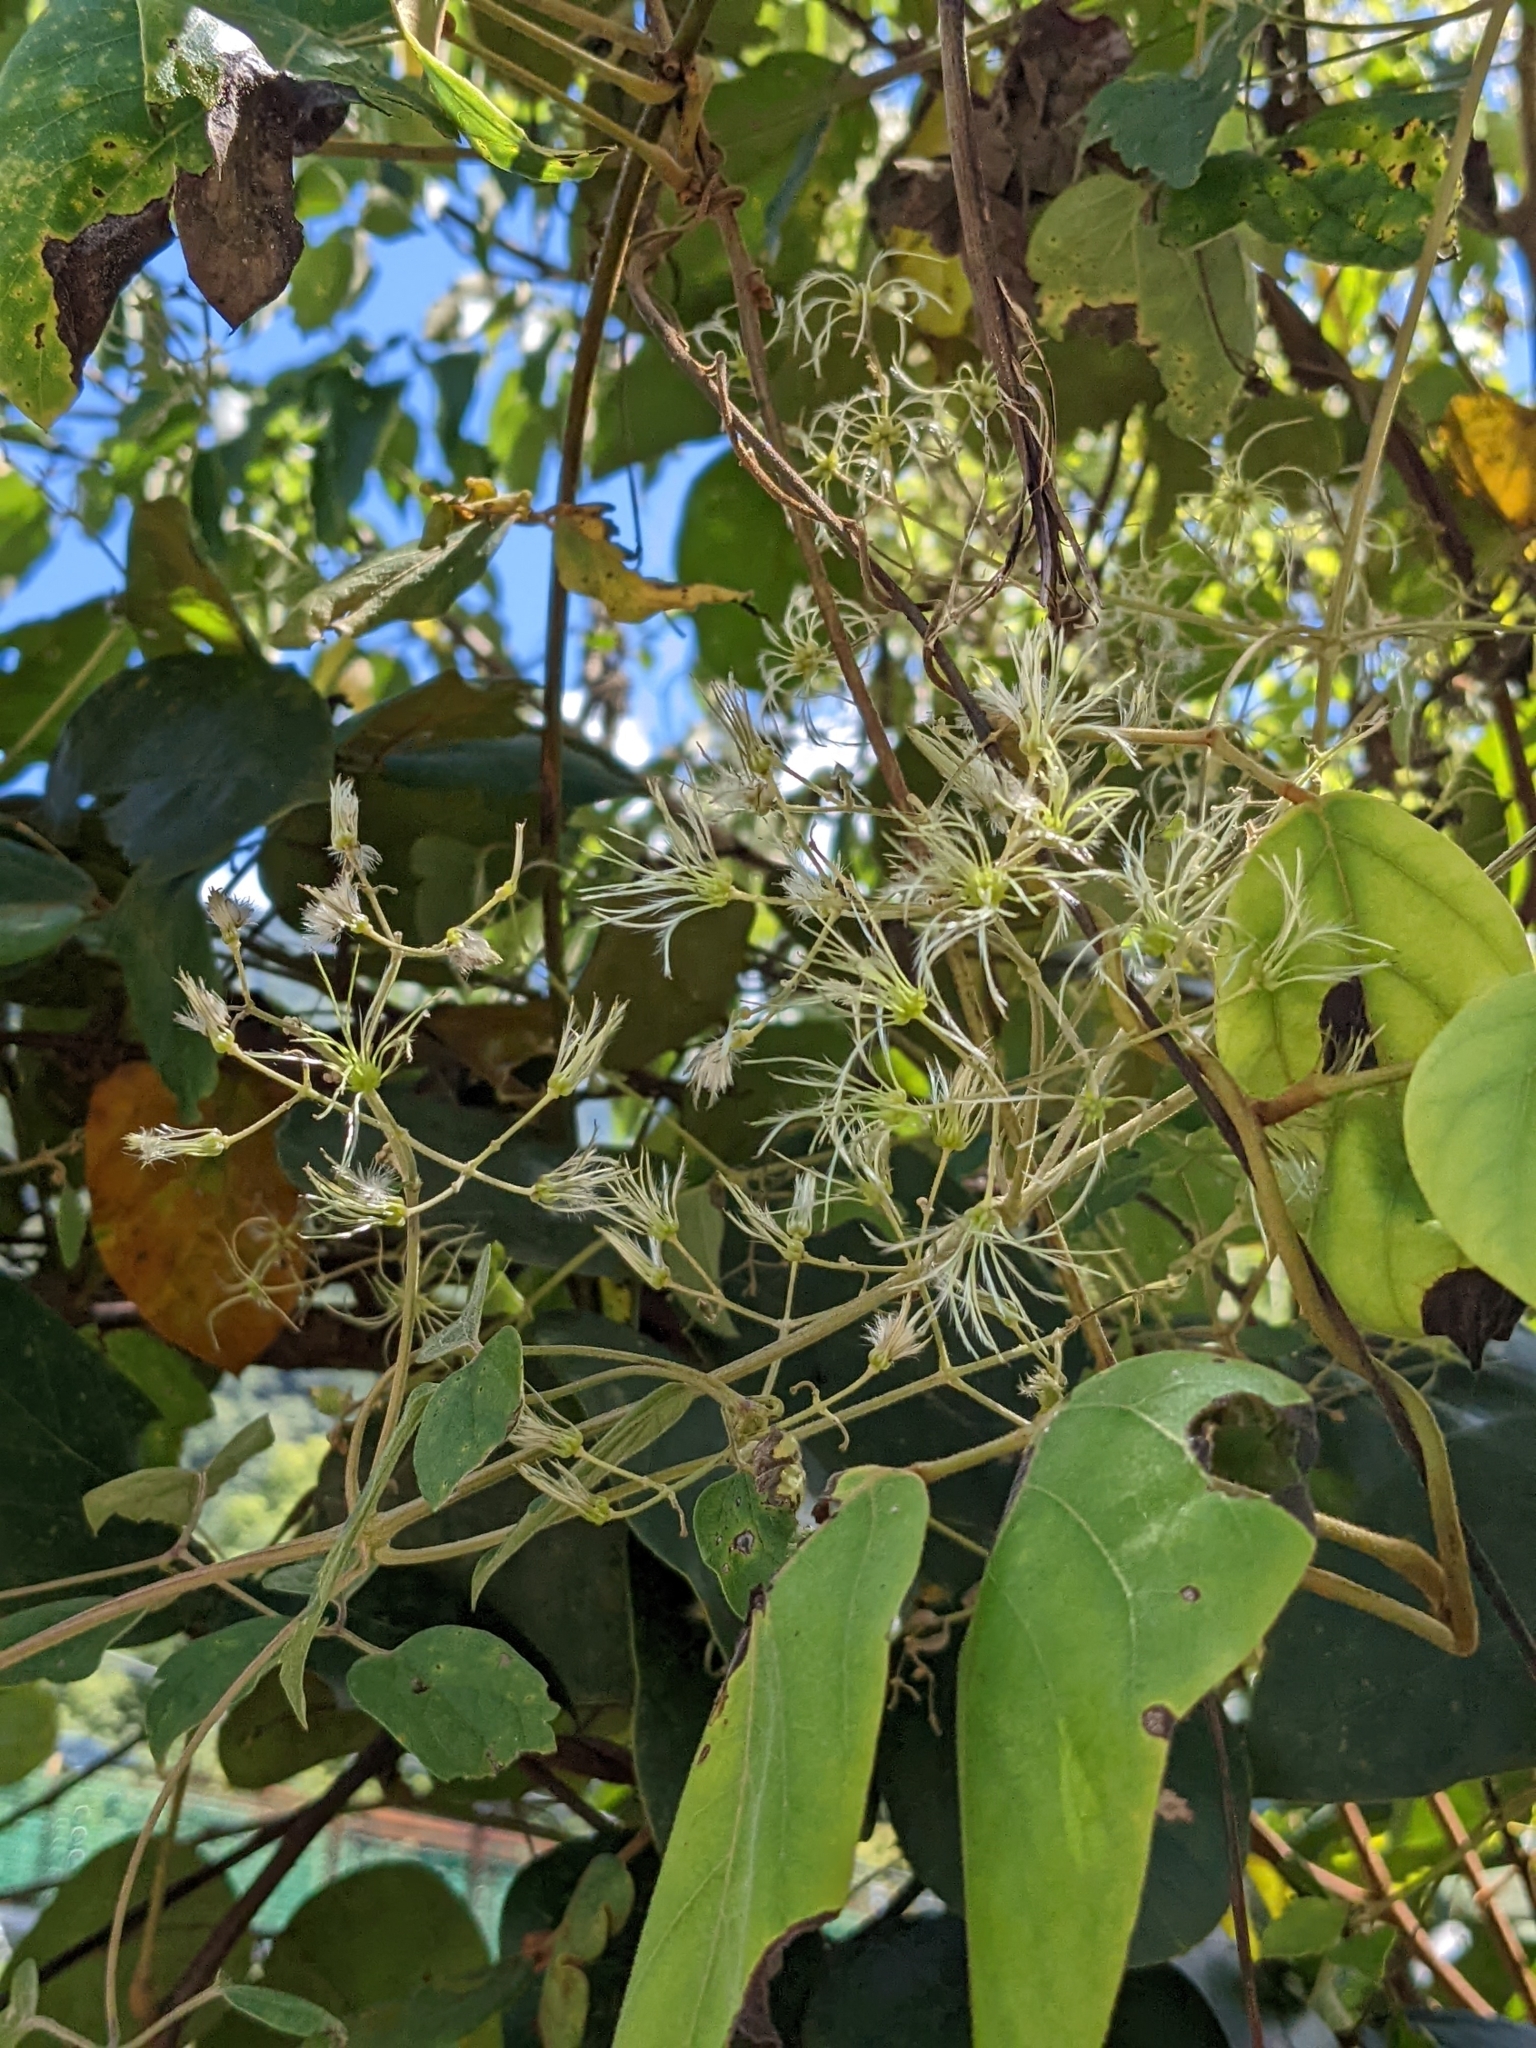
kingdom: Plantae
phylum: Tracheophyta
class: Magnoliopsida
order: Ranunculales
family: Ranunculaceae
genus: Clematis
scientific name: Clematis grata
